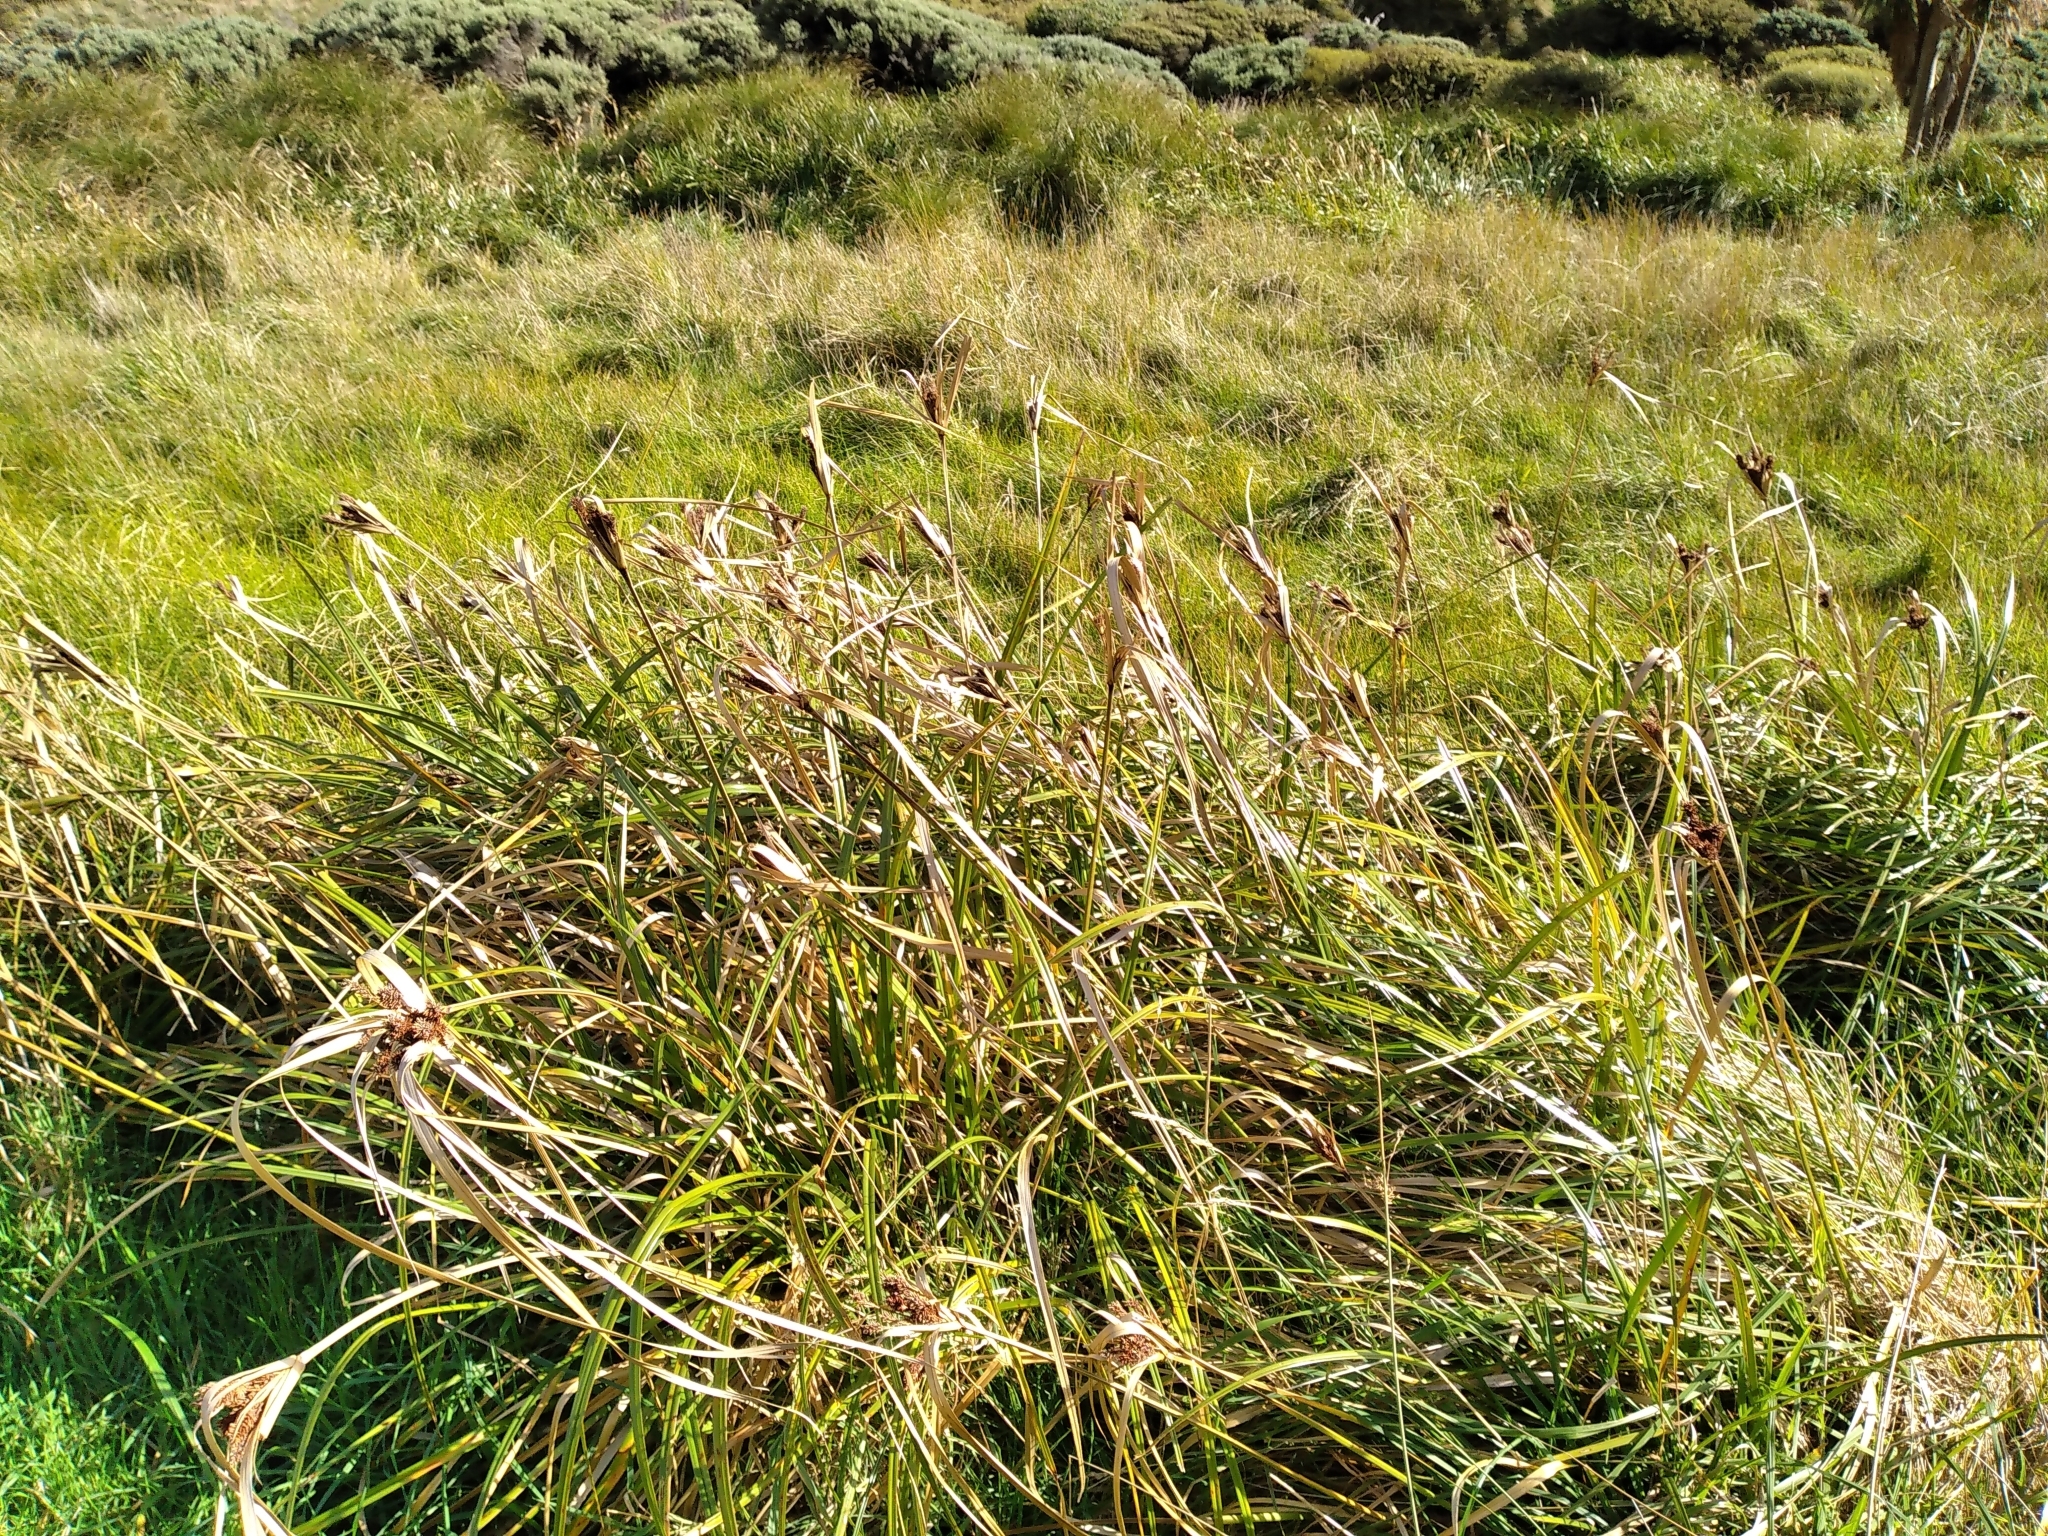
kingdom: Plantae
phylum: Tracheophyta
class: Liliopsida
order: Poales
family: Cyperaceae
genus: Cyperus
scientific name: Cyperus ustulatus
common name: Giant umbrella-sedge
